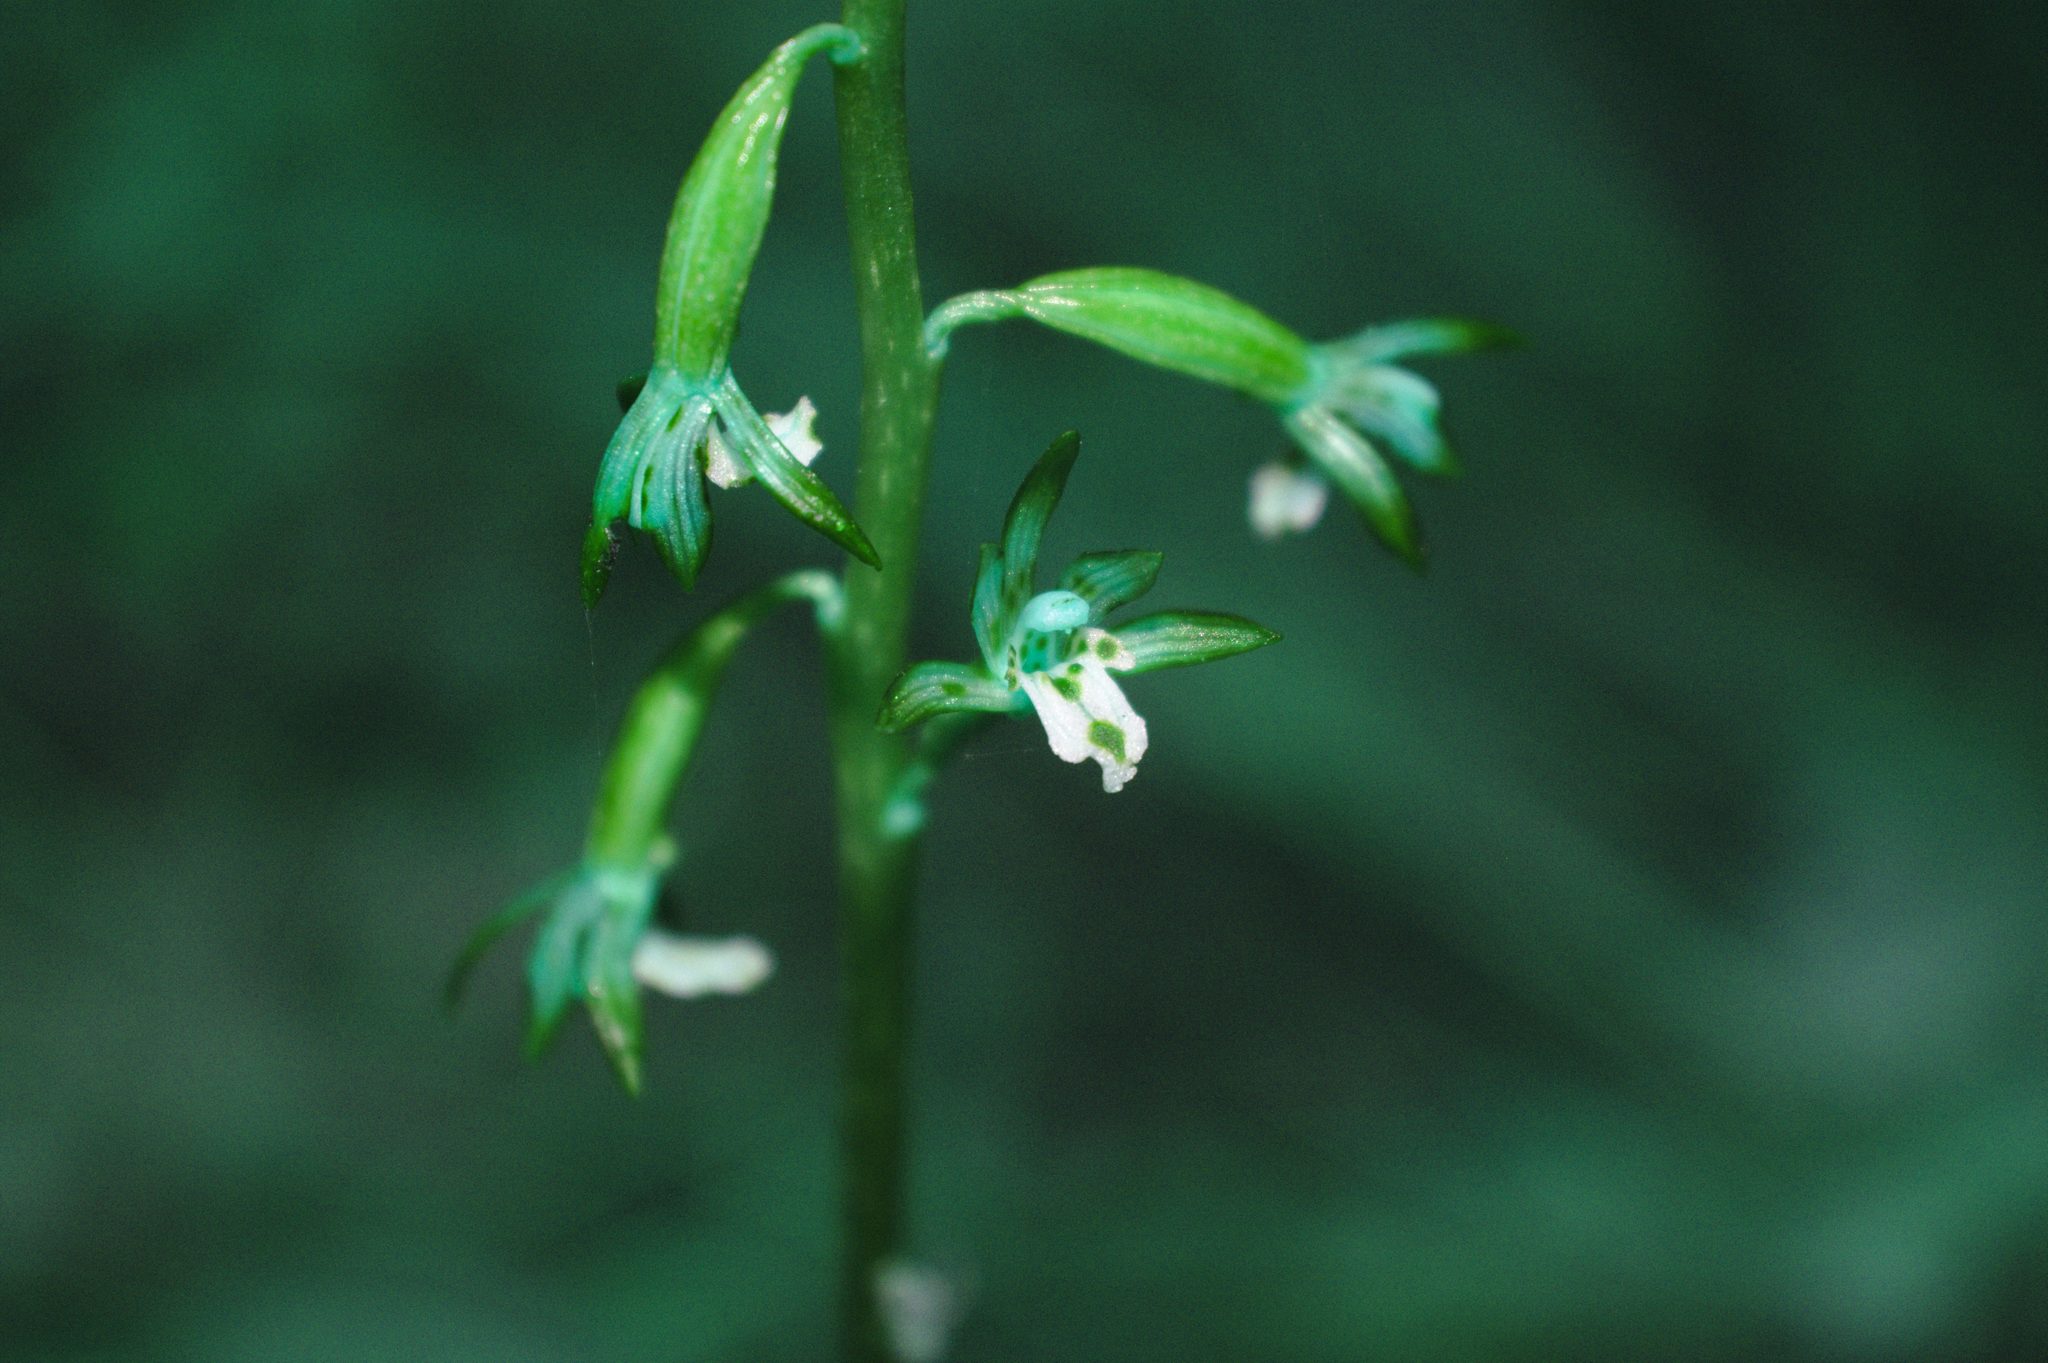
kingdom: Plantae
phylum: Tracheophyta
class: Liliopsida
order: Asparagales
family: Orchidaceae
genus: Corallorhiza
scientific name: Corallorhiza maculata
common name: Spotted coralroot
